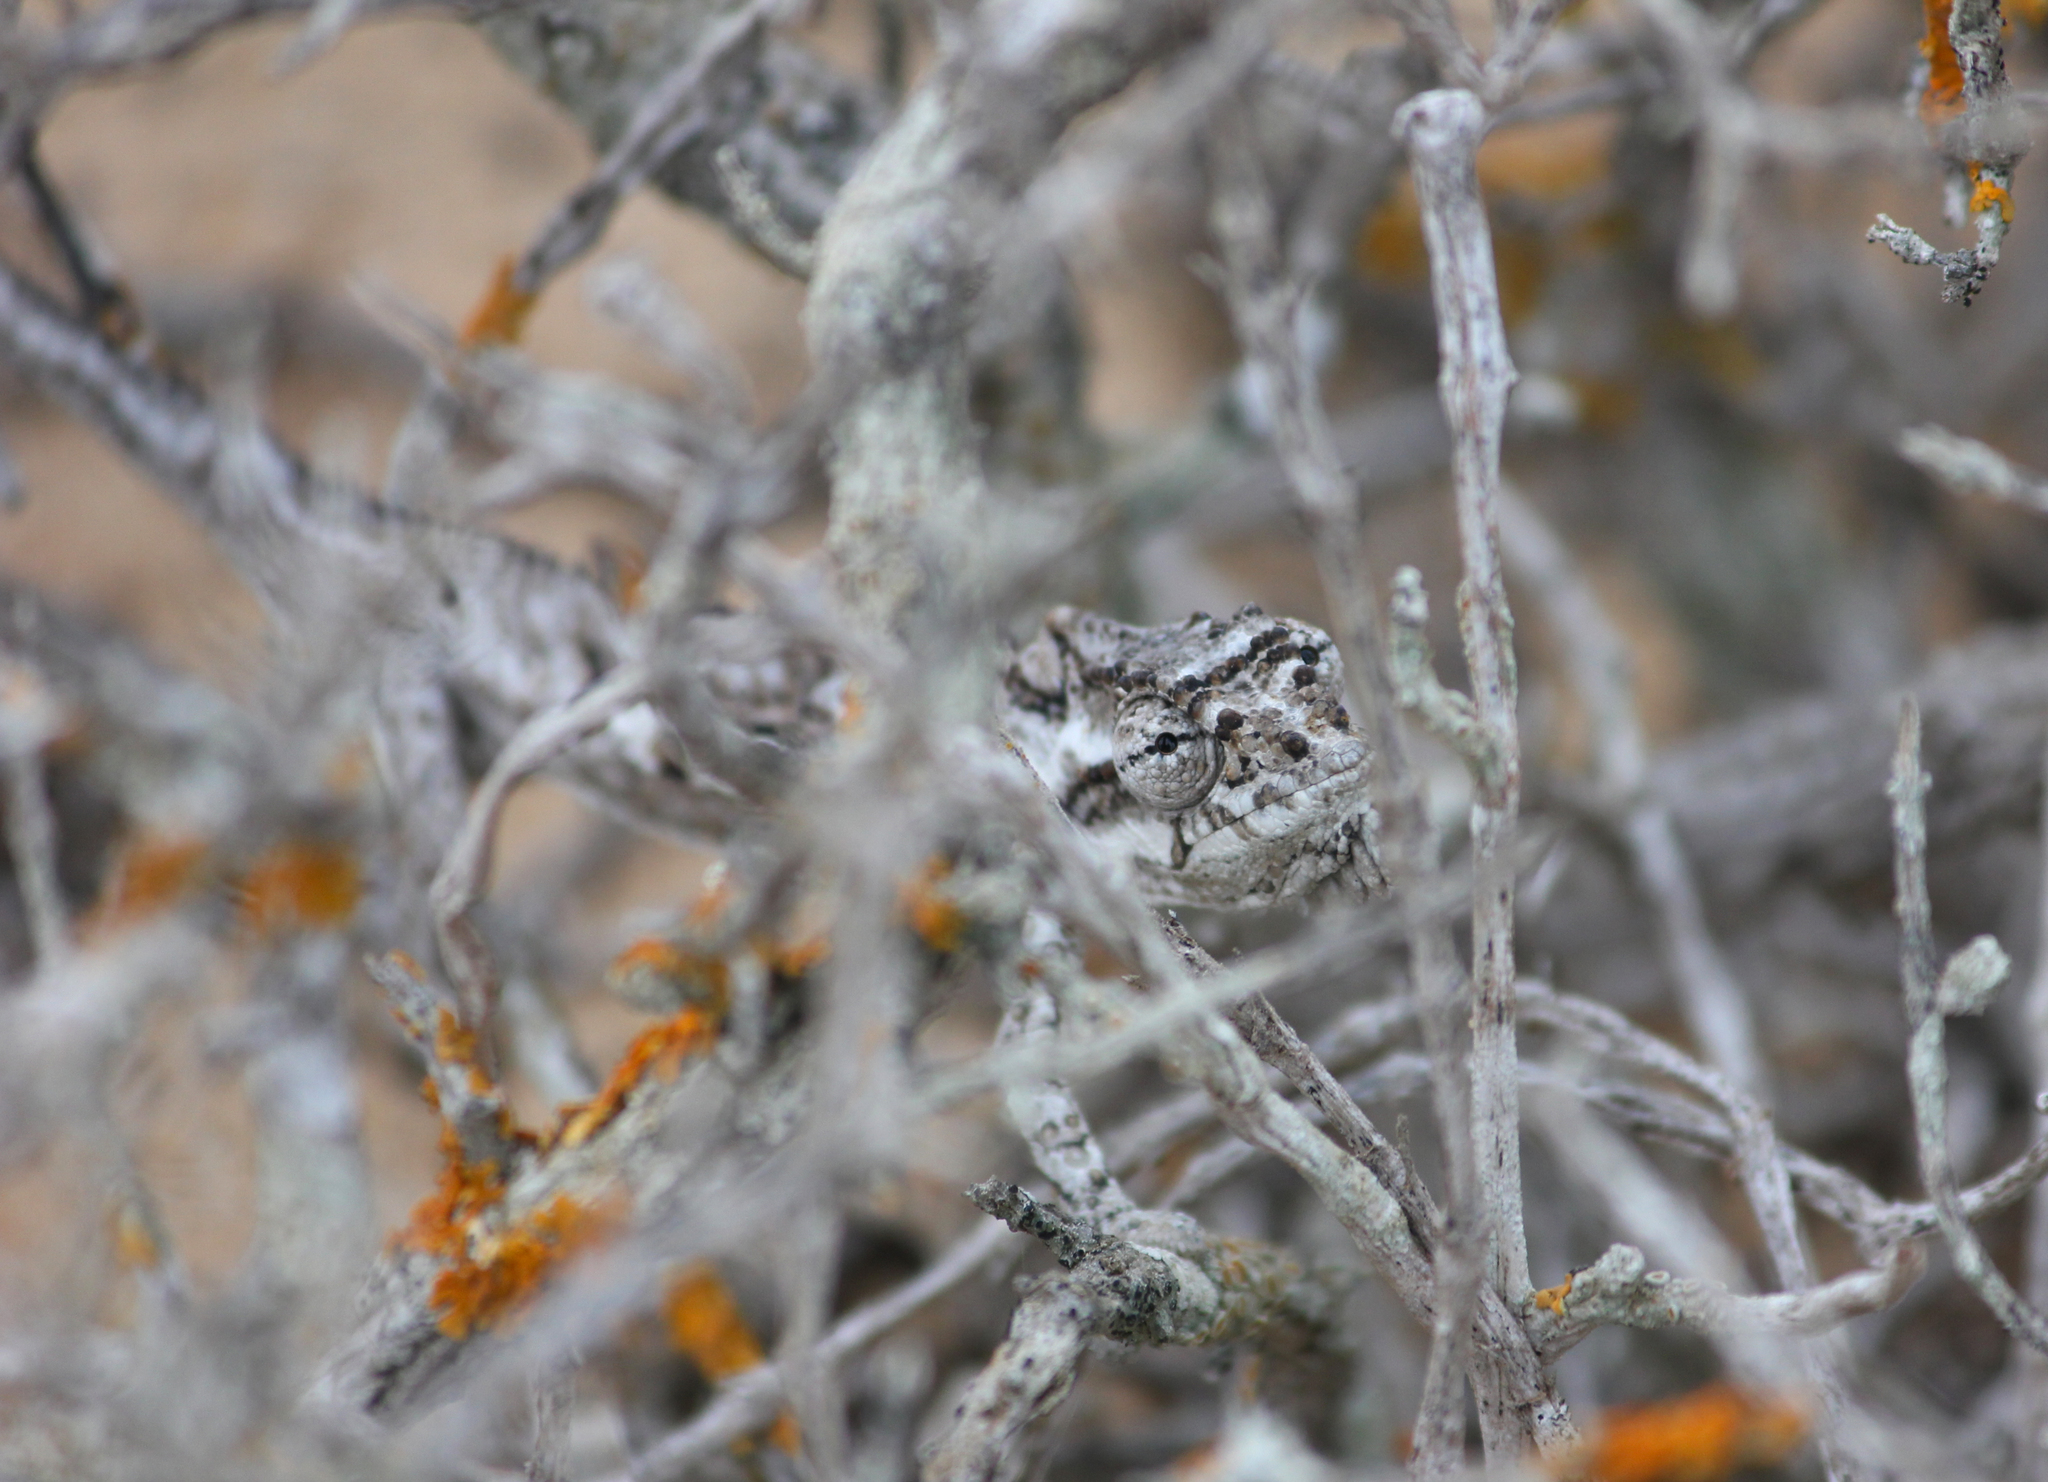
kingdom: Animalia
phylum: Chordata
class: Squamata
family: Chamaeleonidae
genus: Bradypodion
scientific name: Bradypodion occidentale
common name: Western dwarf chameleon
